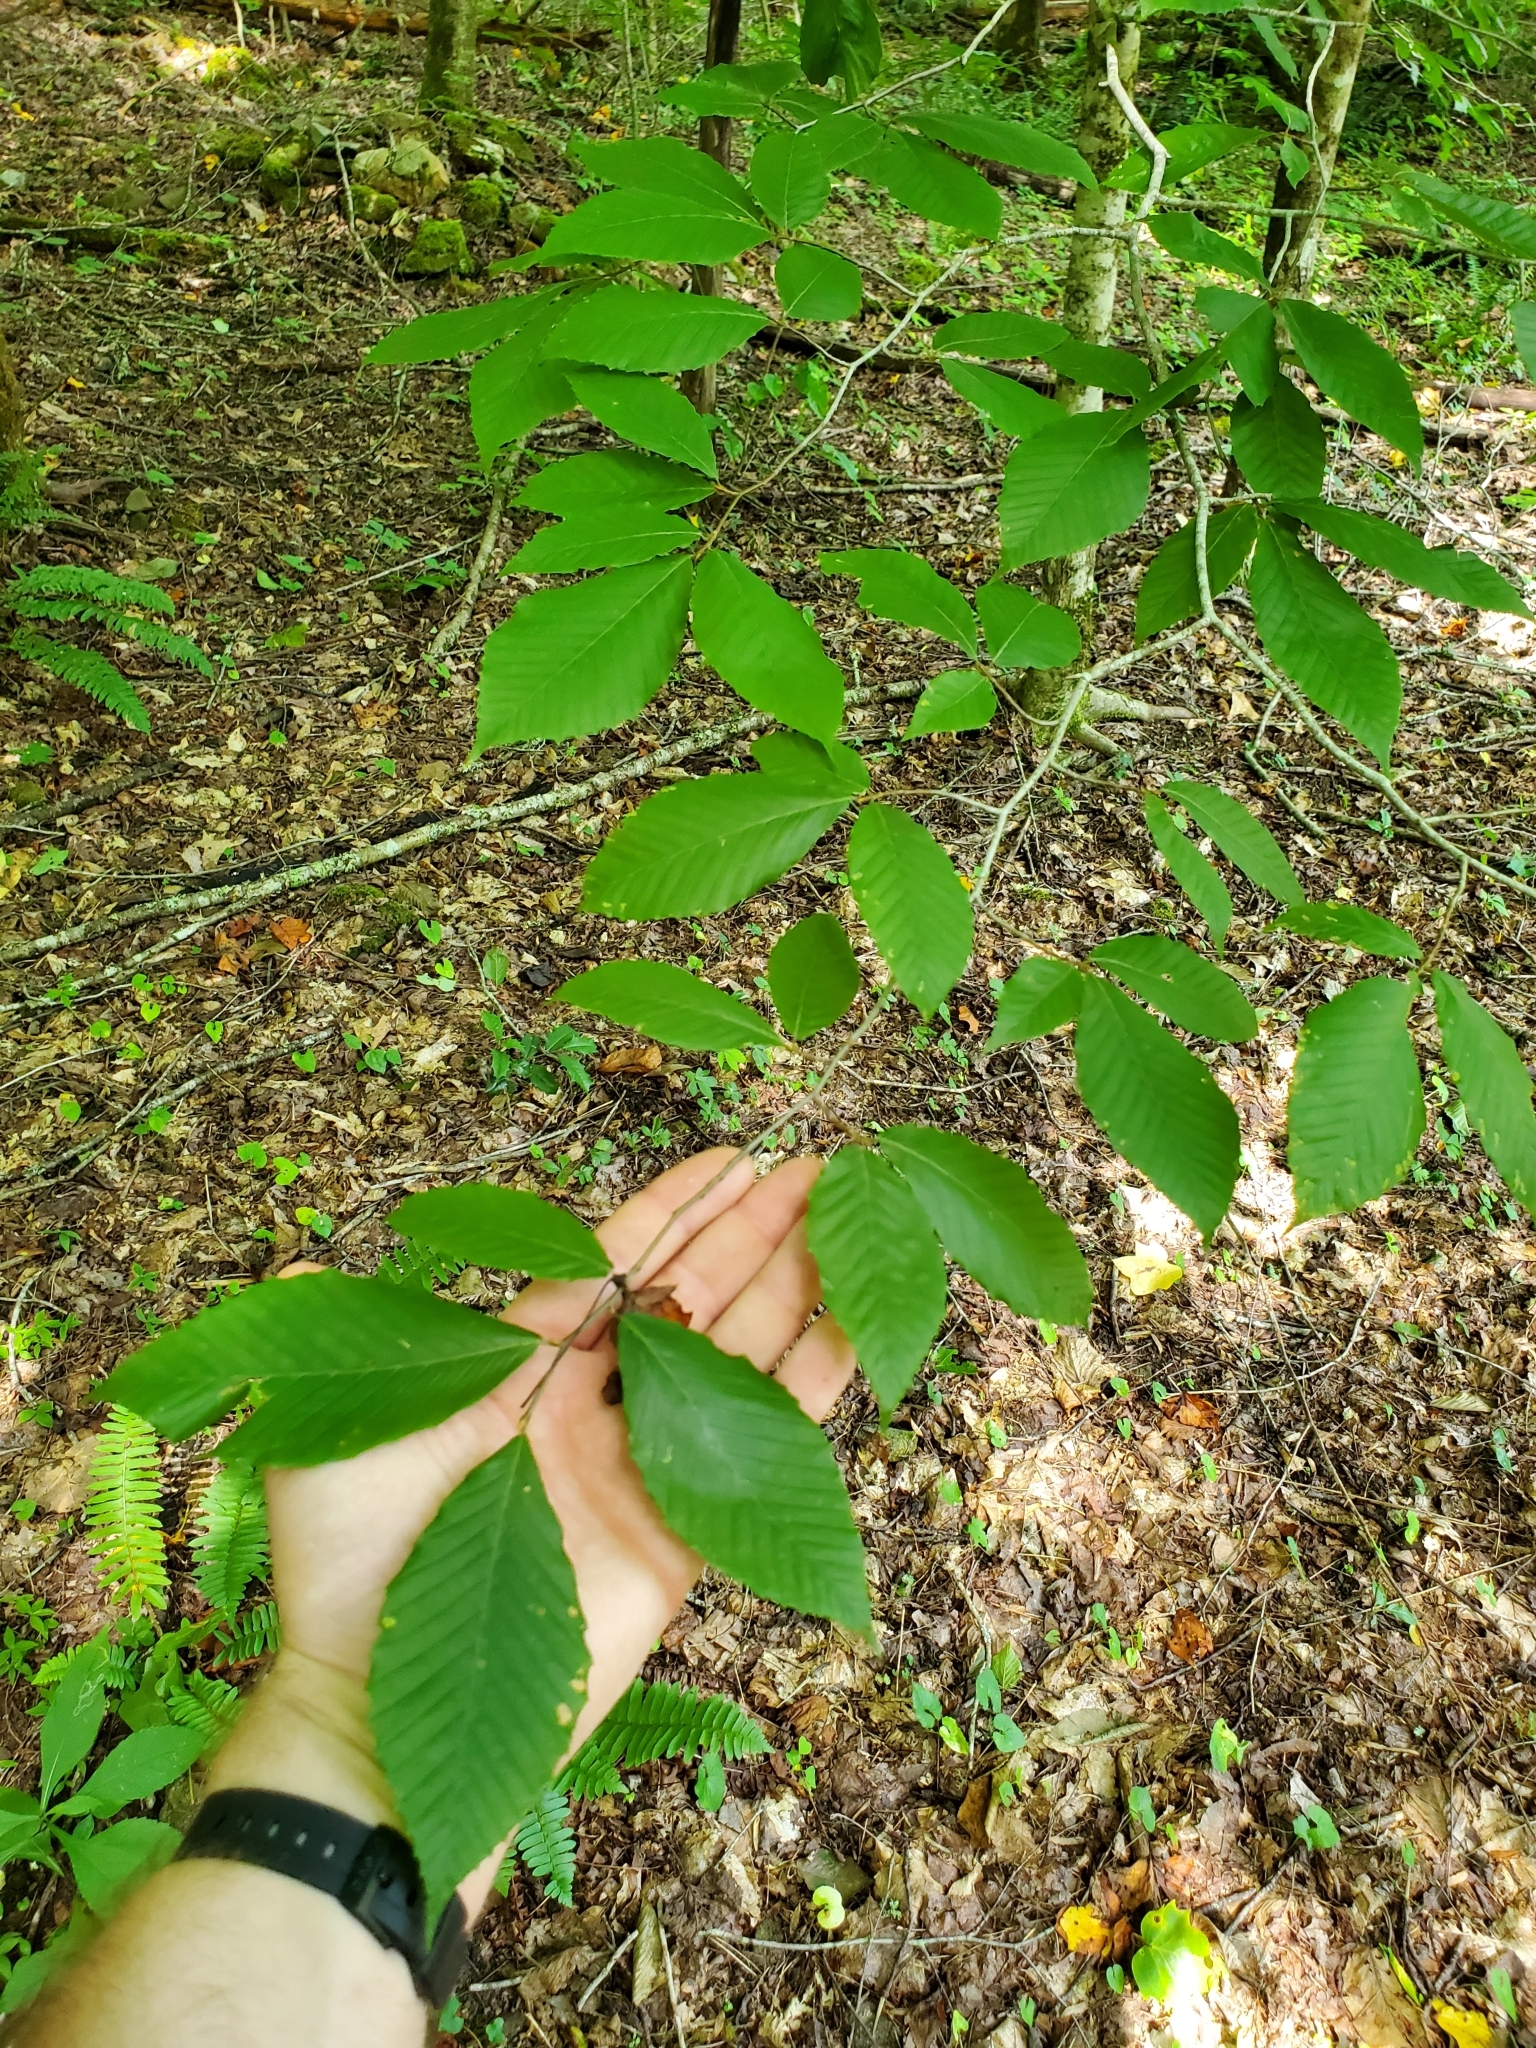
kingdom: Plantae
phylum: Tracheophyta
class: Magnoliopsida
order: Fagales
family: Fagaceae
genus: Fagus
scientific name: Fagus grandifolia
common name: American beech
